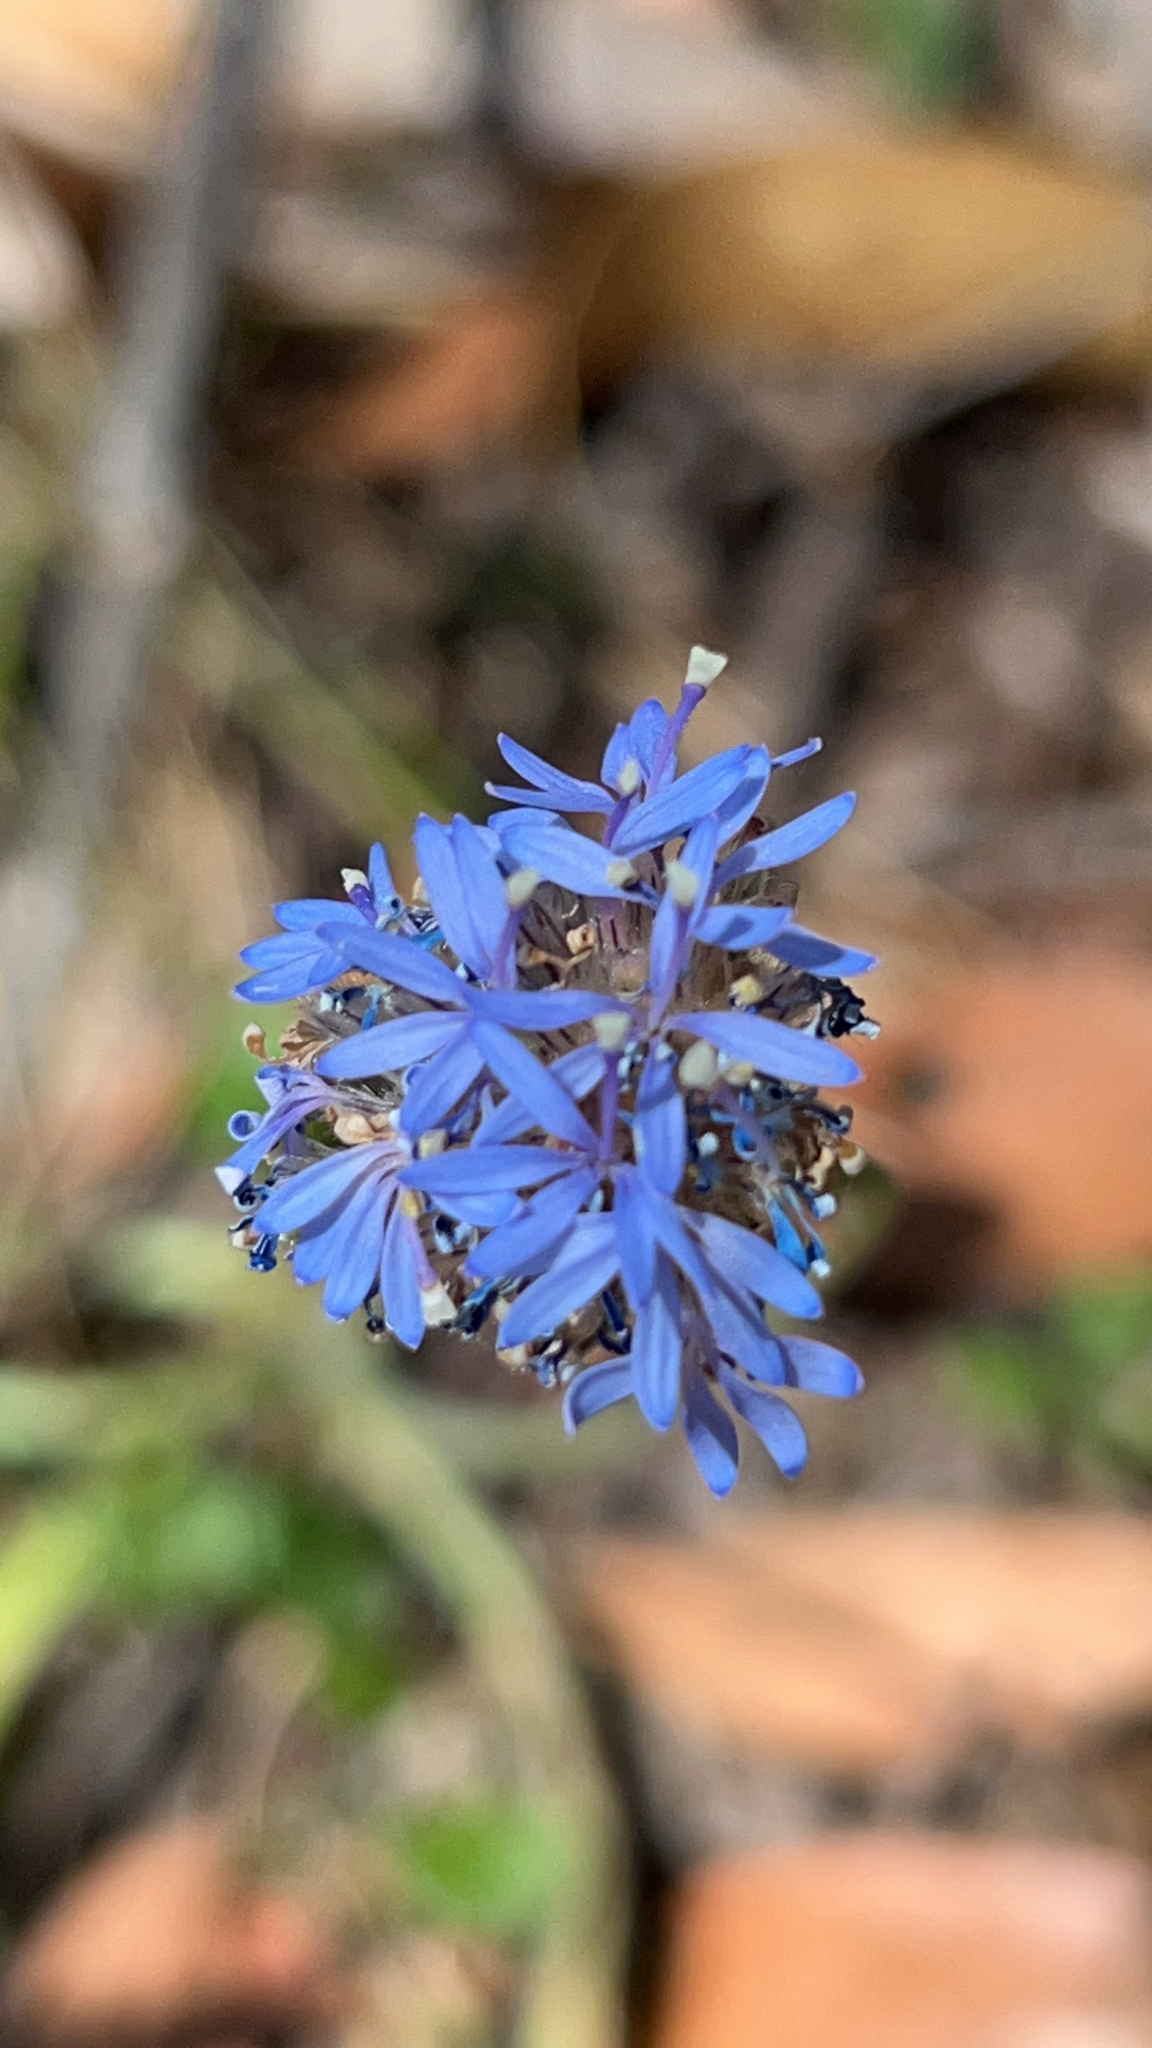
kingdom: Plantae
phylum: Tracheophyta
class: Magnoliopsida
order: Asterales
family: Goodeniaceae
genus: Brunonia
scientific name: Brunonia australis
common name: Blue pincushion
